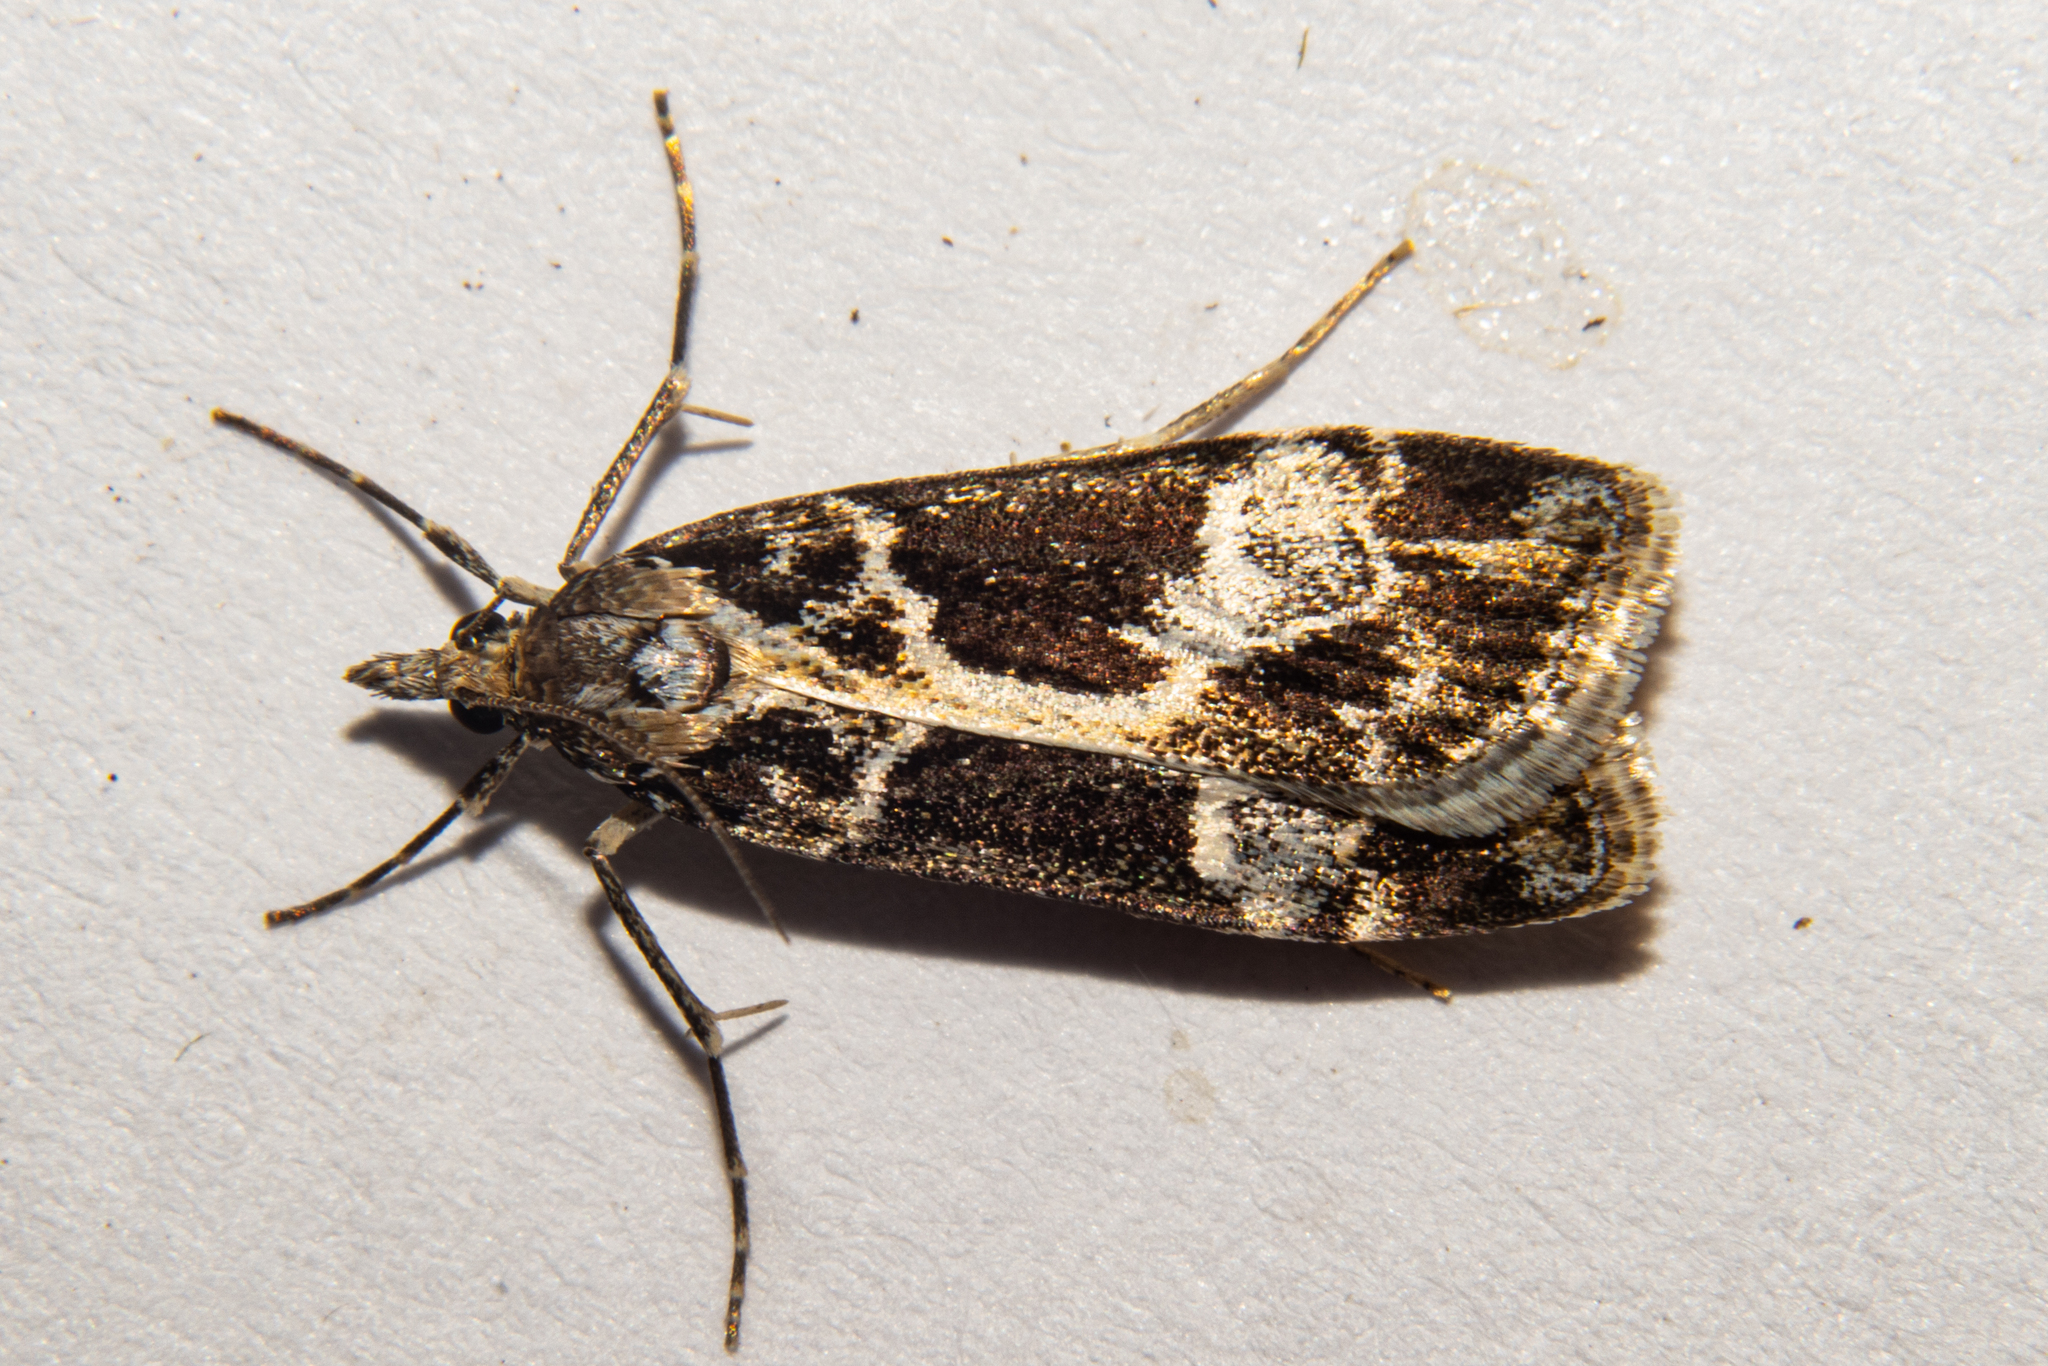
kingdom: Animalia
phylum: Arthropoda
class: Insecta
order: Lepidoptera
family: Crambidae
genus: Eudonia
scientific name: Eudonia melanaegis
